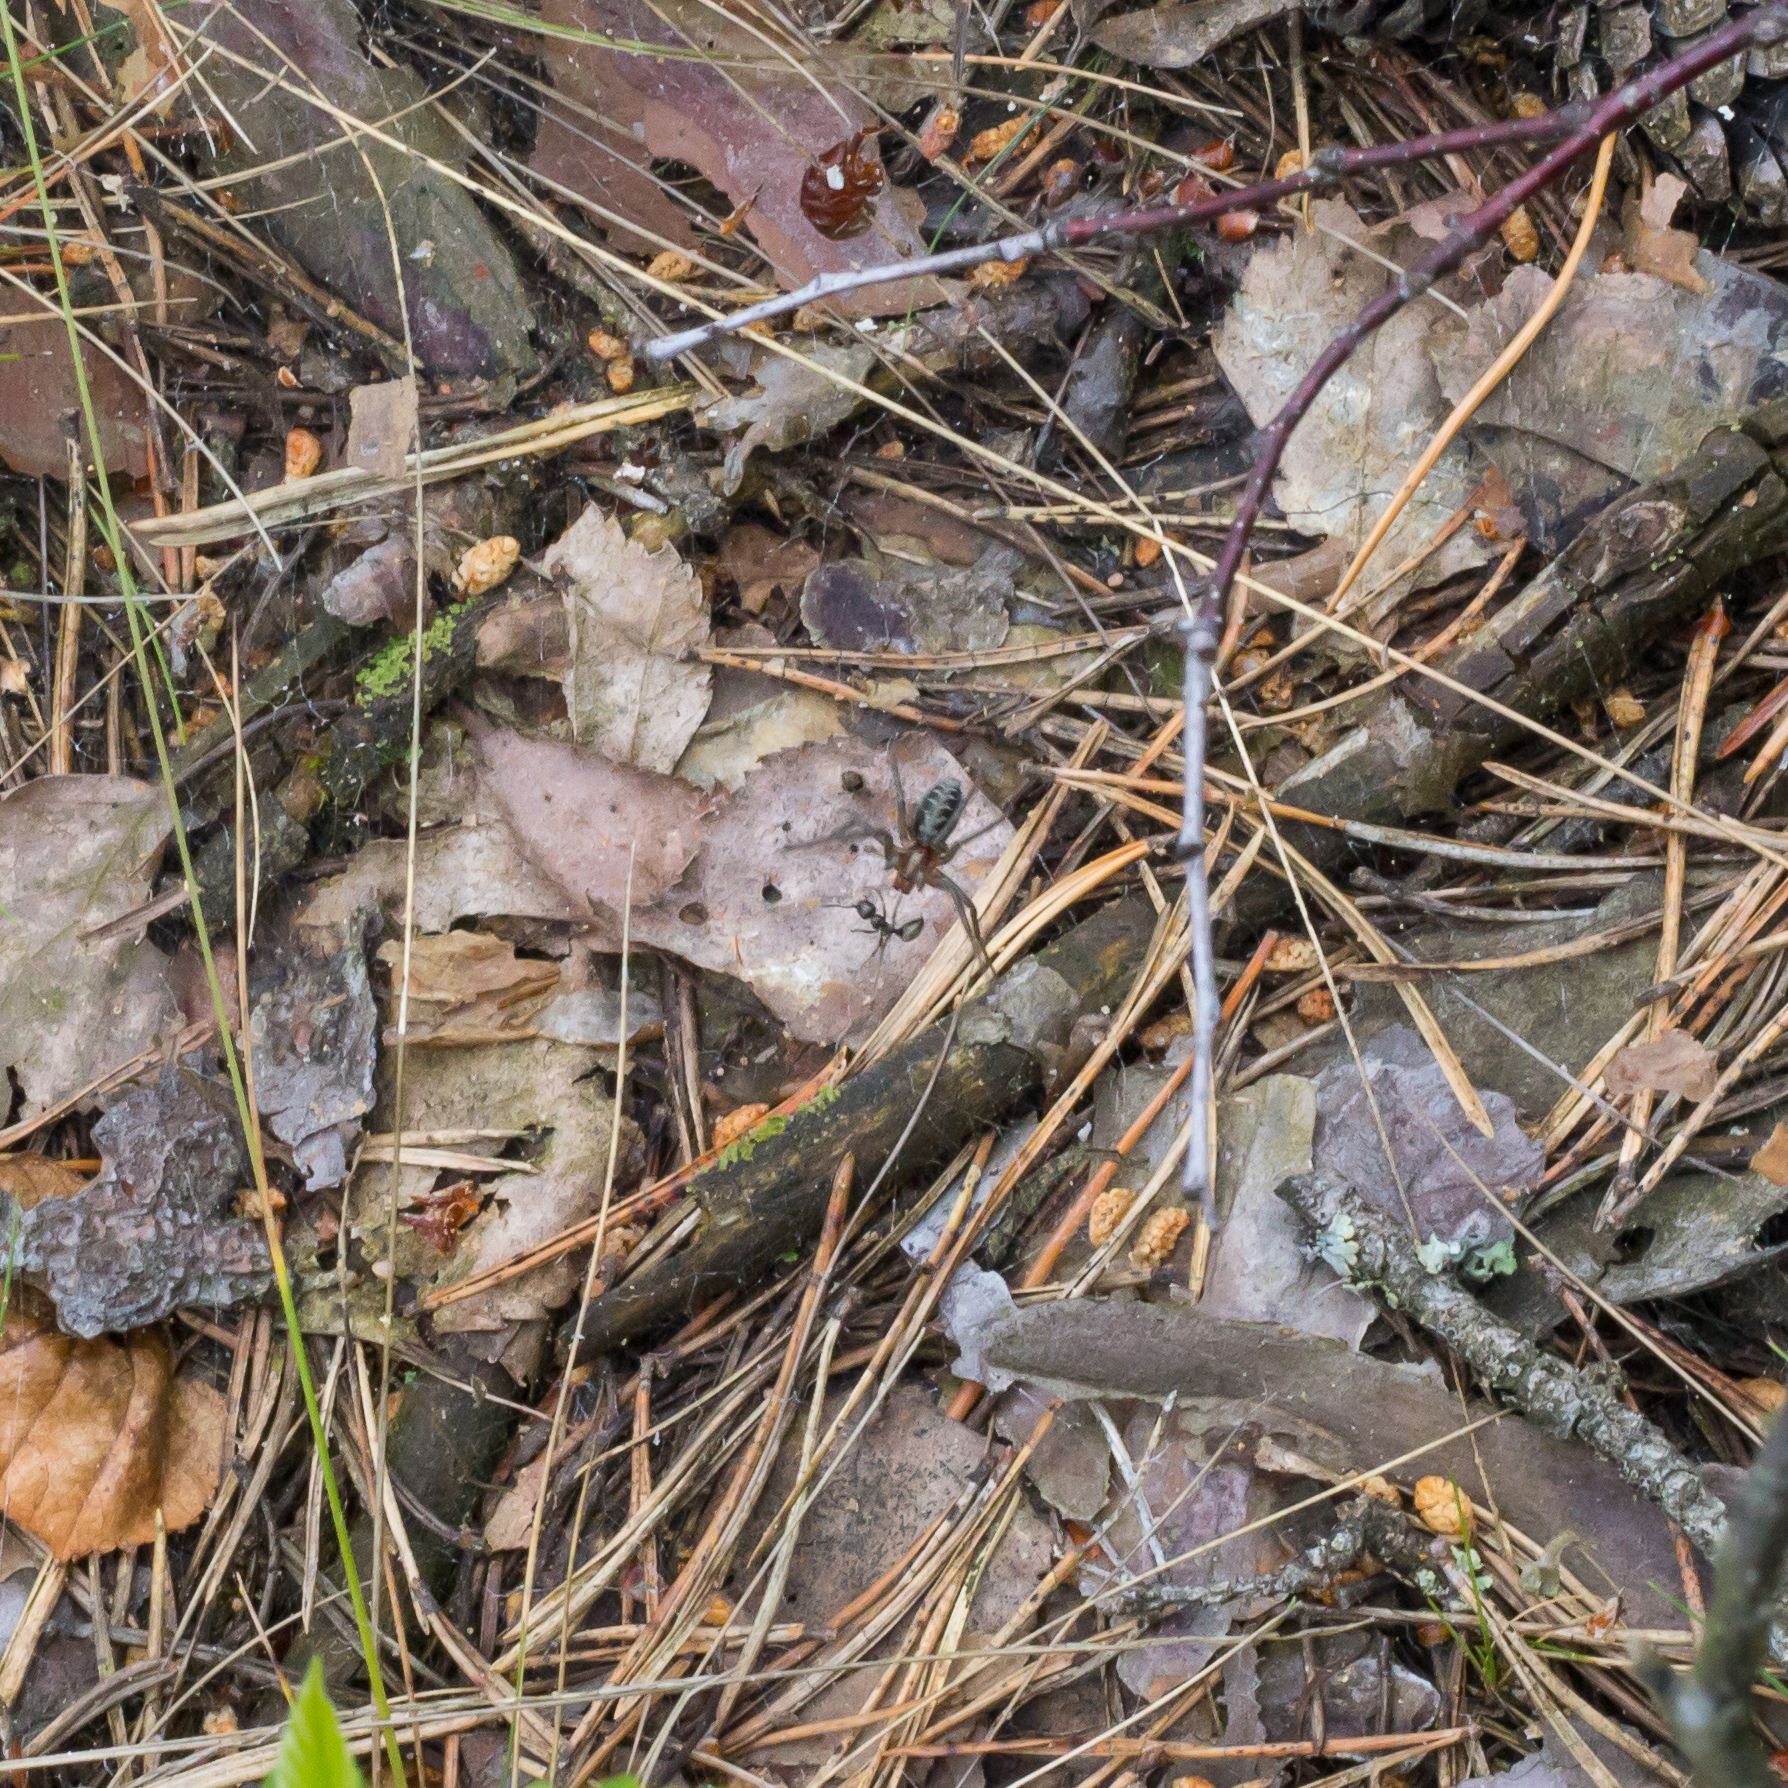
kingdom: Animalia
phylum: Arthropoda
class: Arachnida
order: Araneae
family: Agelenidae
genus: Agelena
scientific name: Agelena labyrinthica
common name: Labyrinth spider
